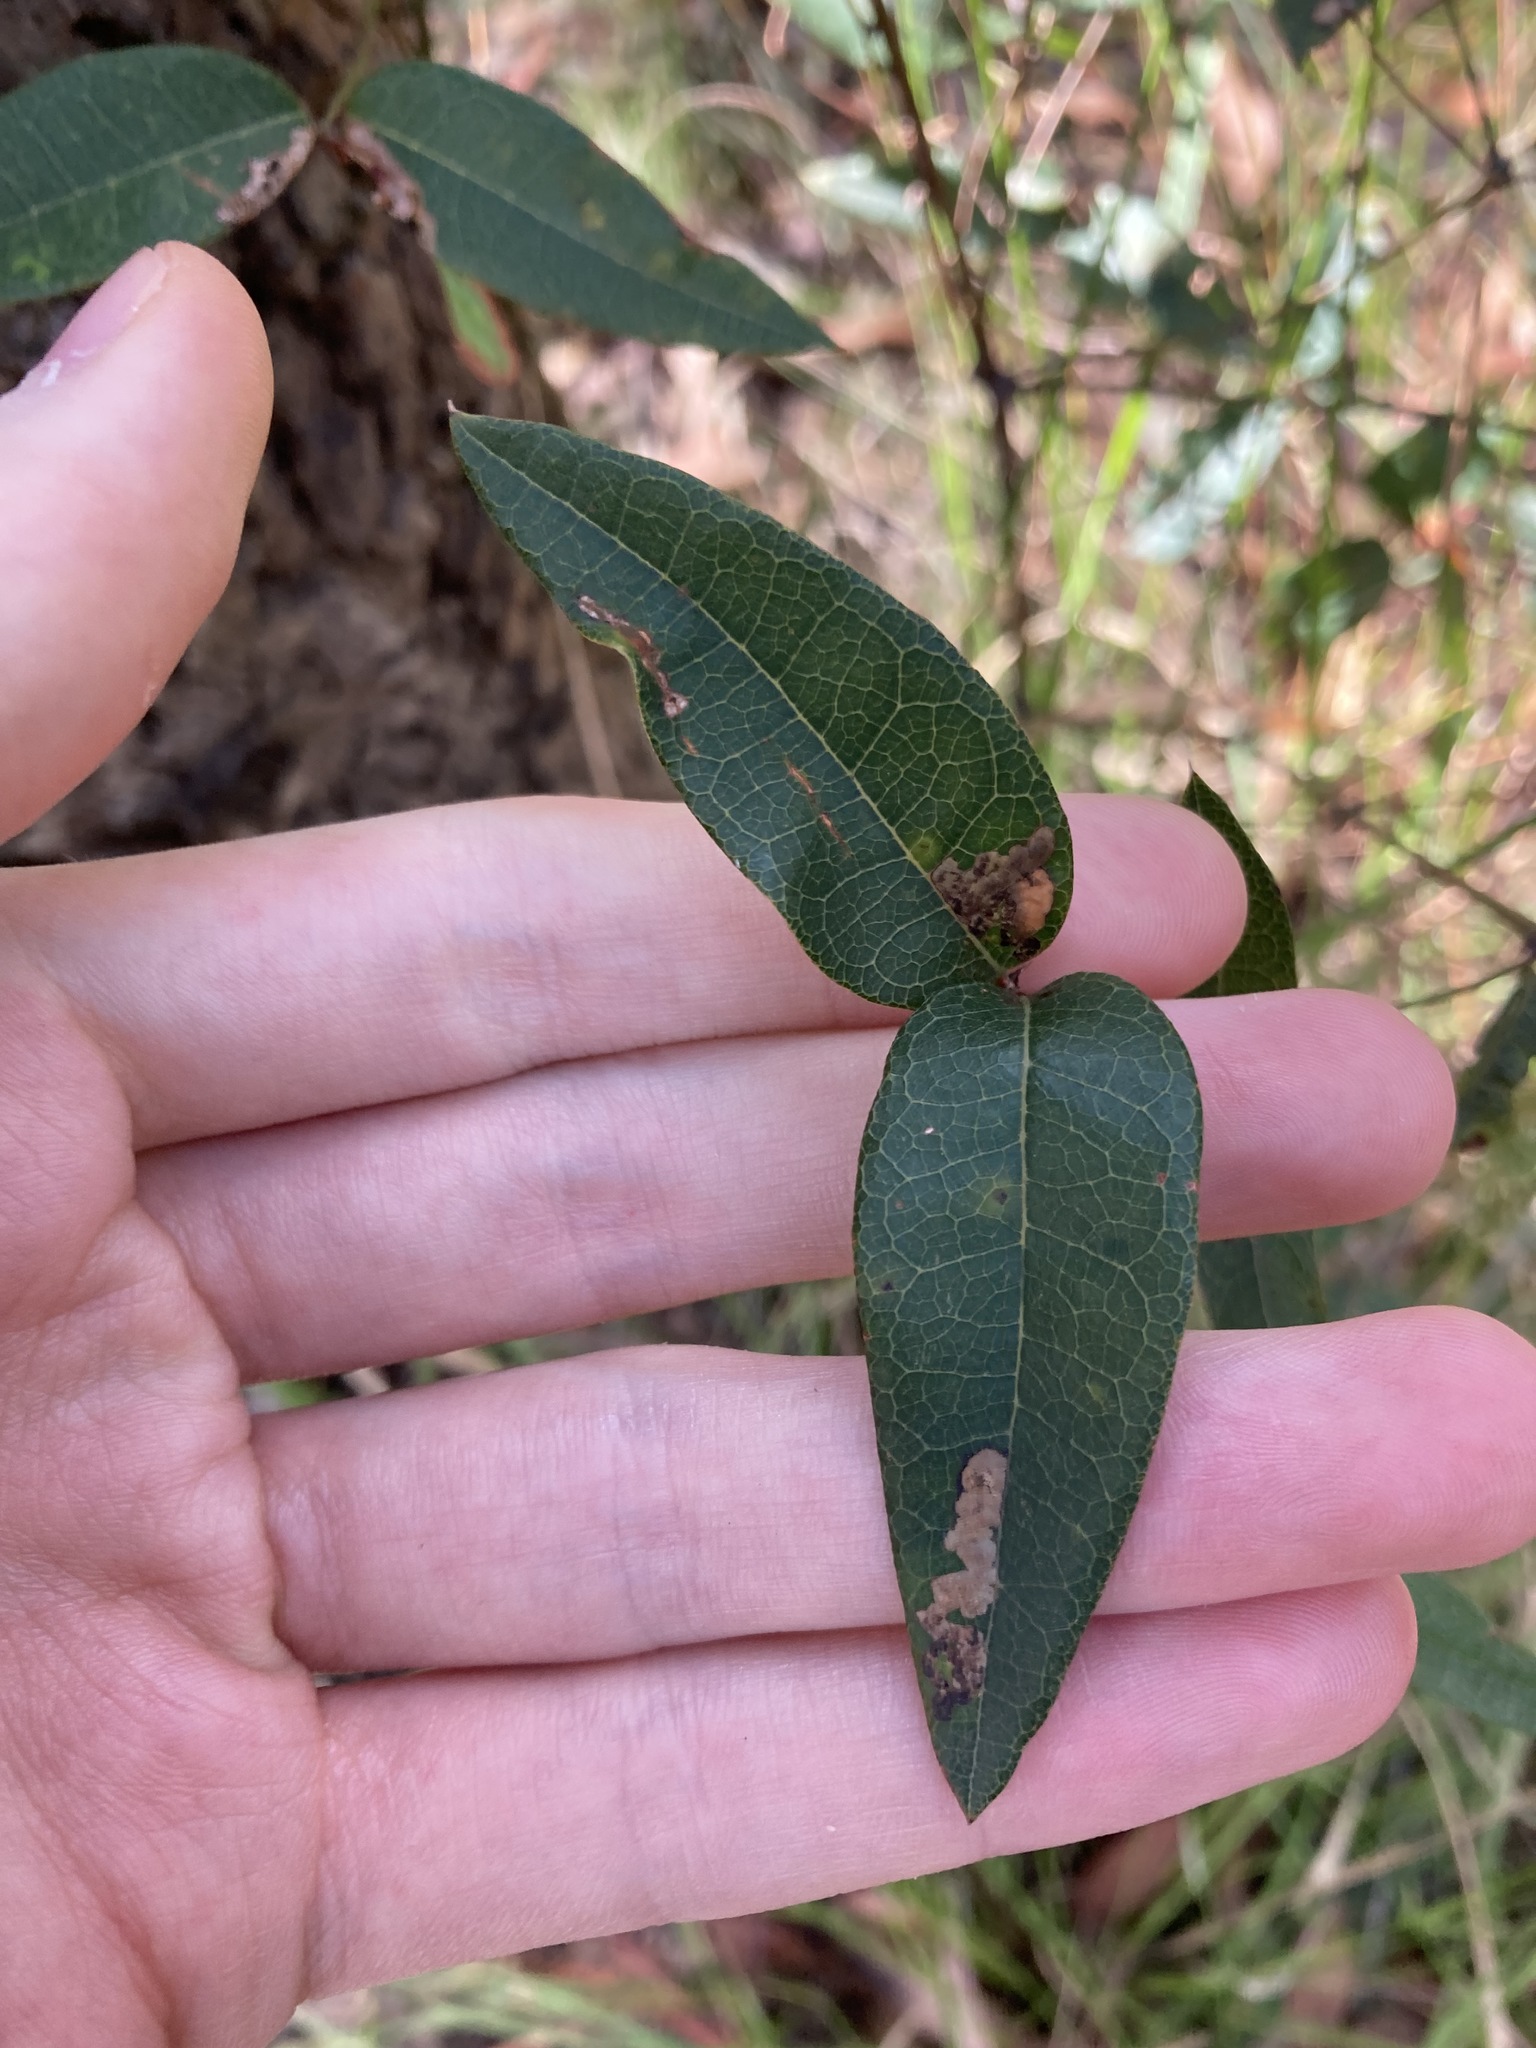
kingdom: Plantae
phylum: Tracheophyta
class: Magnoliopsida
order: Fabales
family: Fabaceae
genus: Platylobium
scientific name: Platylobium formosum
